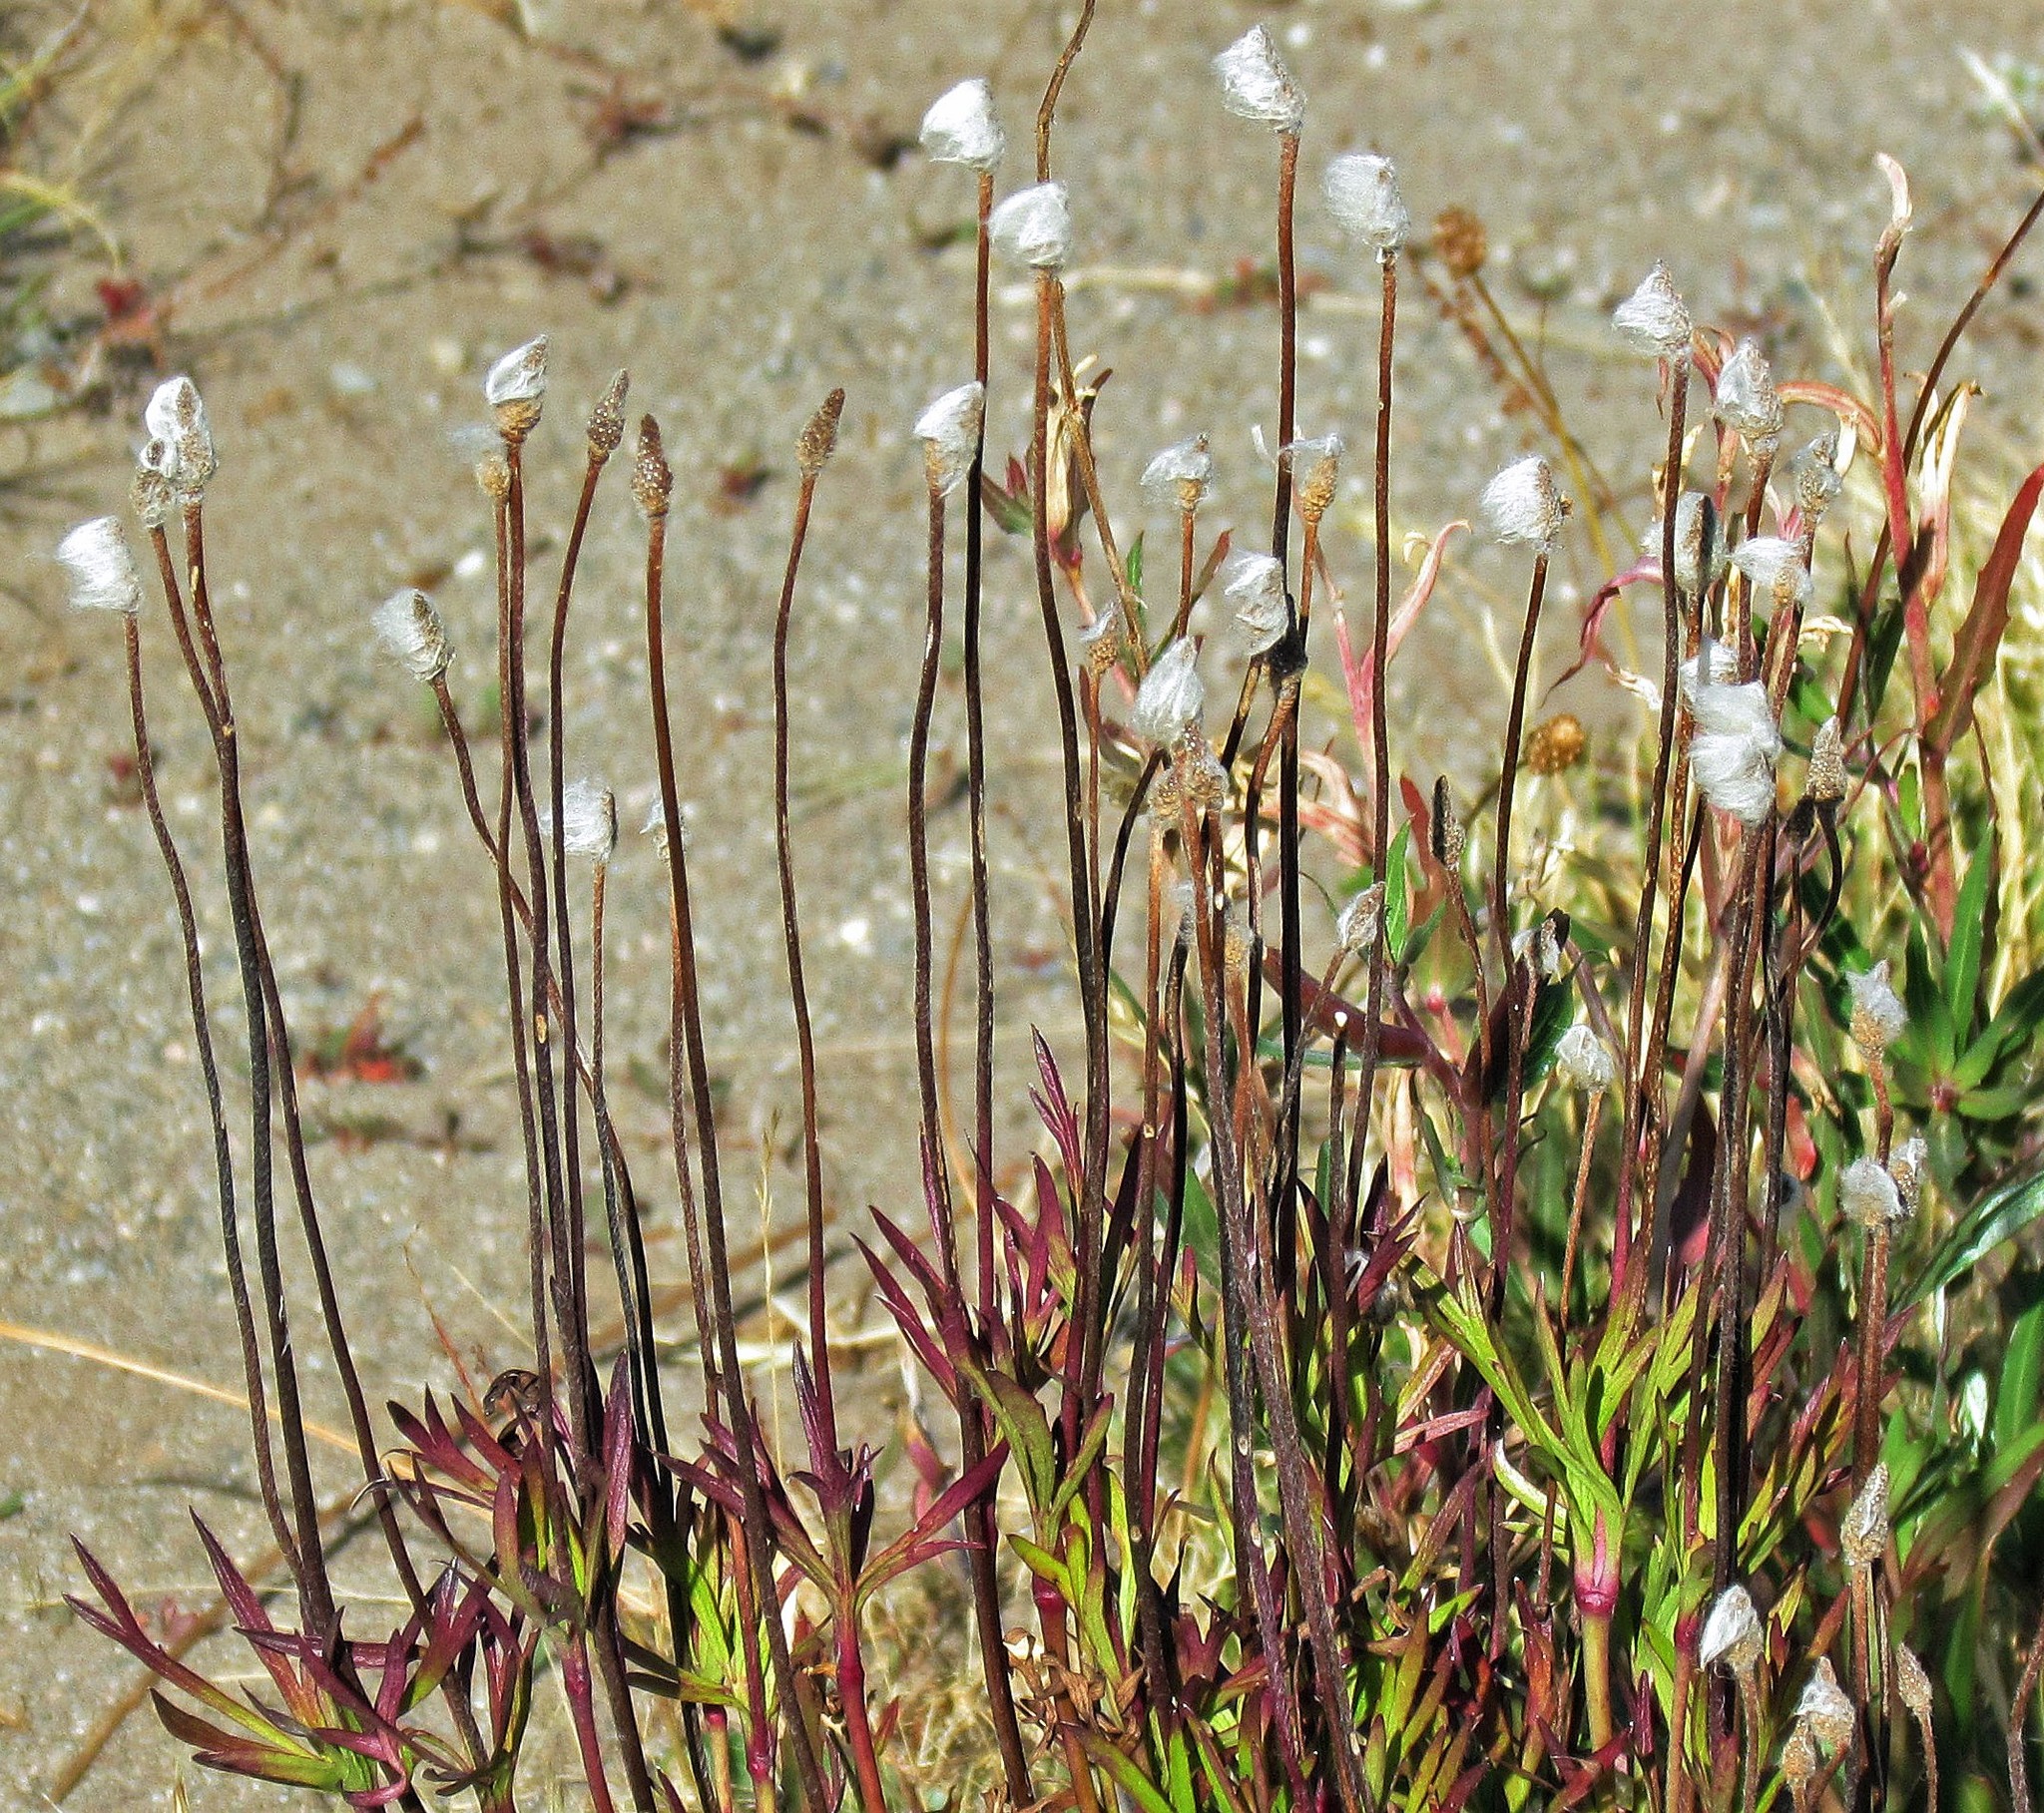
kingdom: Plantae
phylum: Tracheophyta
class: Magnoliopsida
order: Ranunculales
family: Ranunculaceae
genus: Anemone
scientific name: Anemone multifida
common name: Bird's-foot anemone
